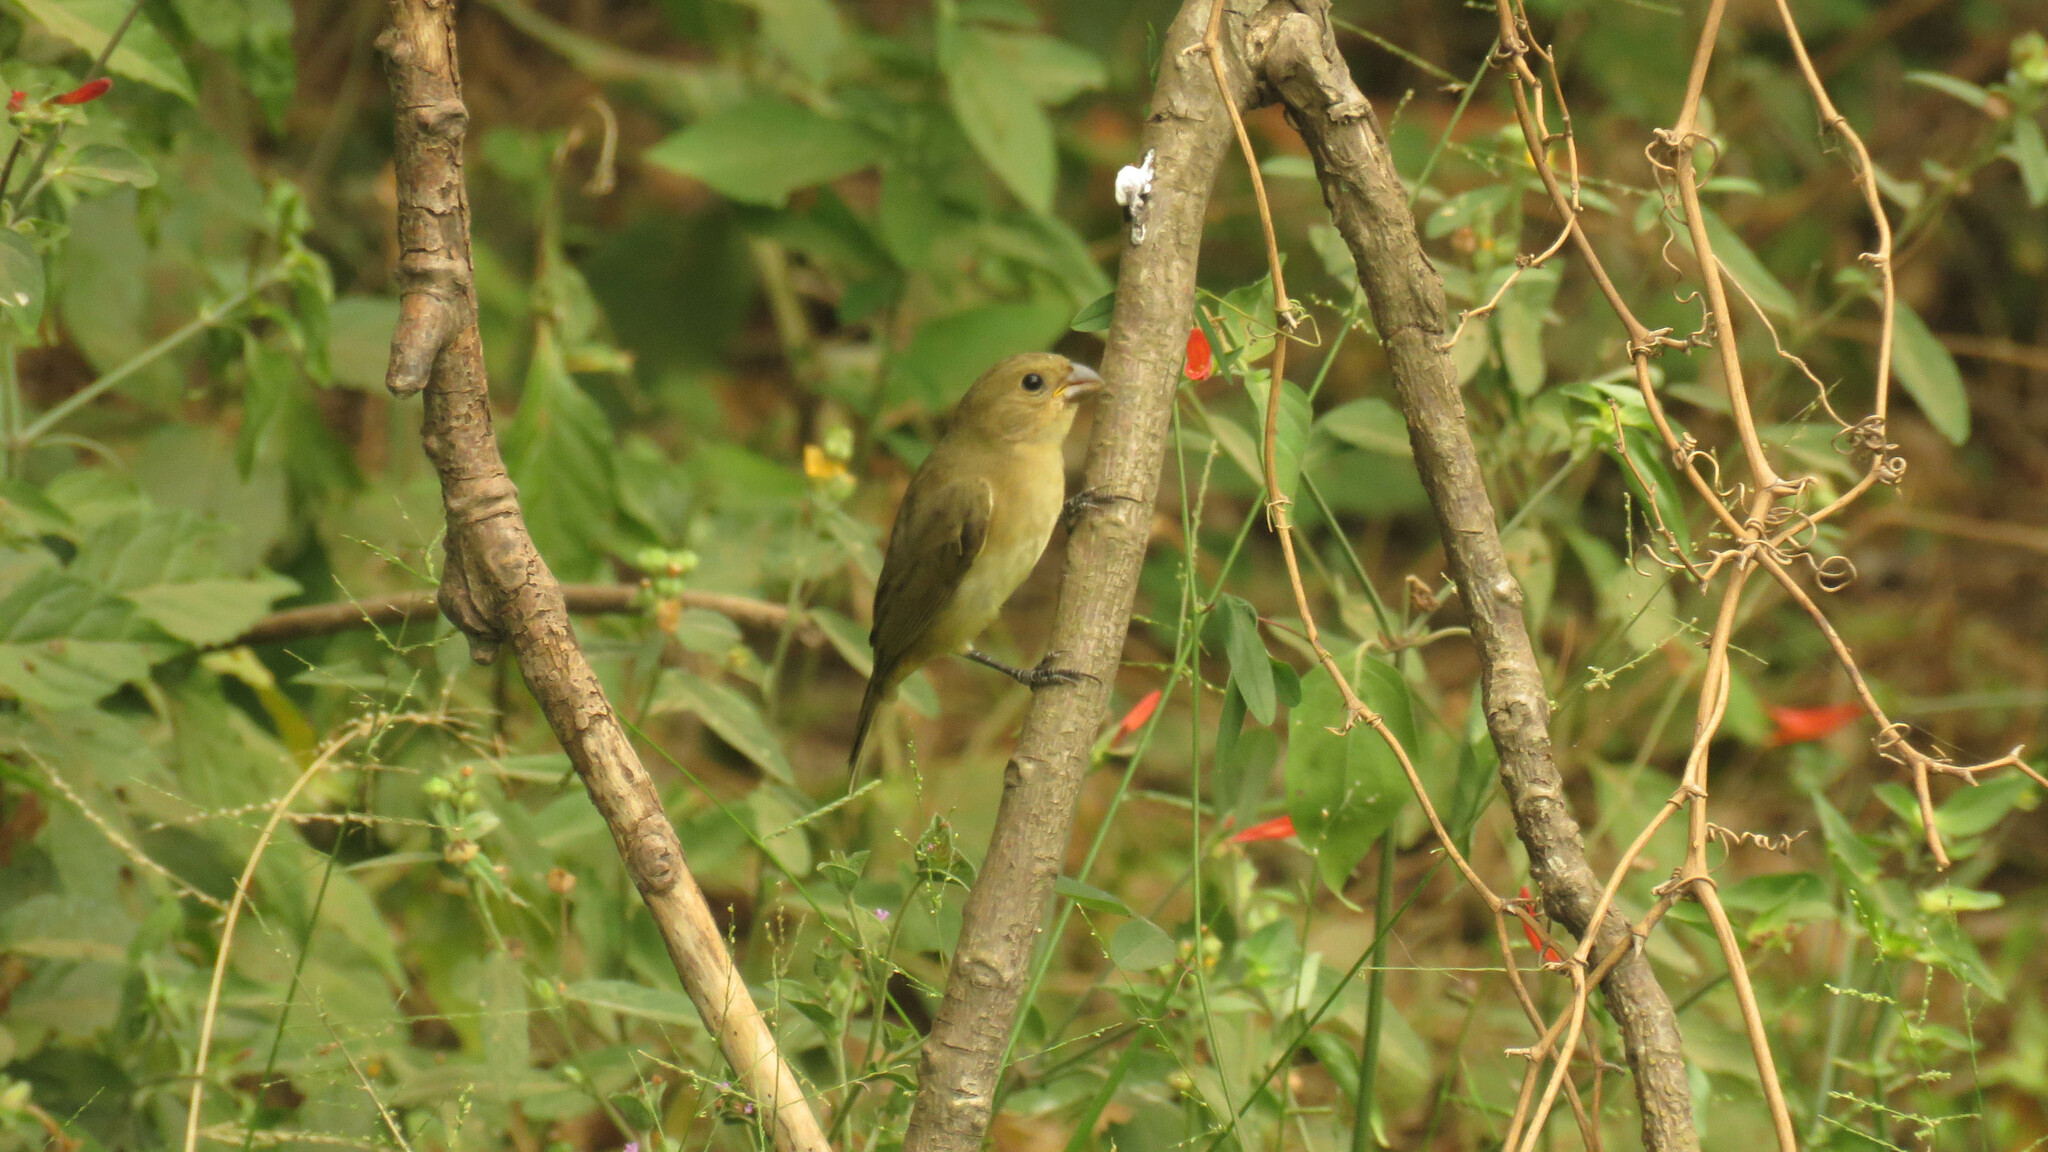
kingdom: Animalia
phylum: Chordata
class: Aves
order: Passeriformes
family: Thraupidae
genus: Sporophila
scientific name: Sporophila caerulescens
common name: Double-collared seedeater
